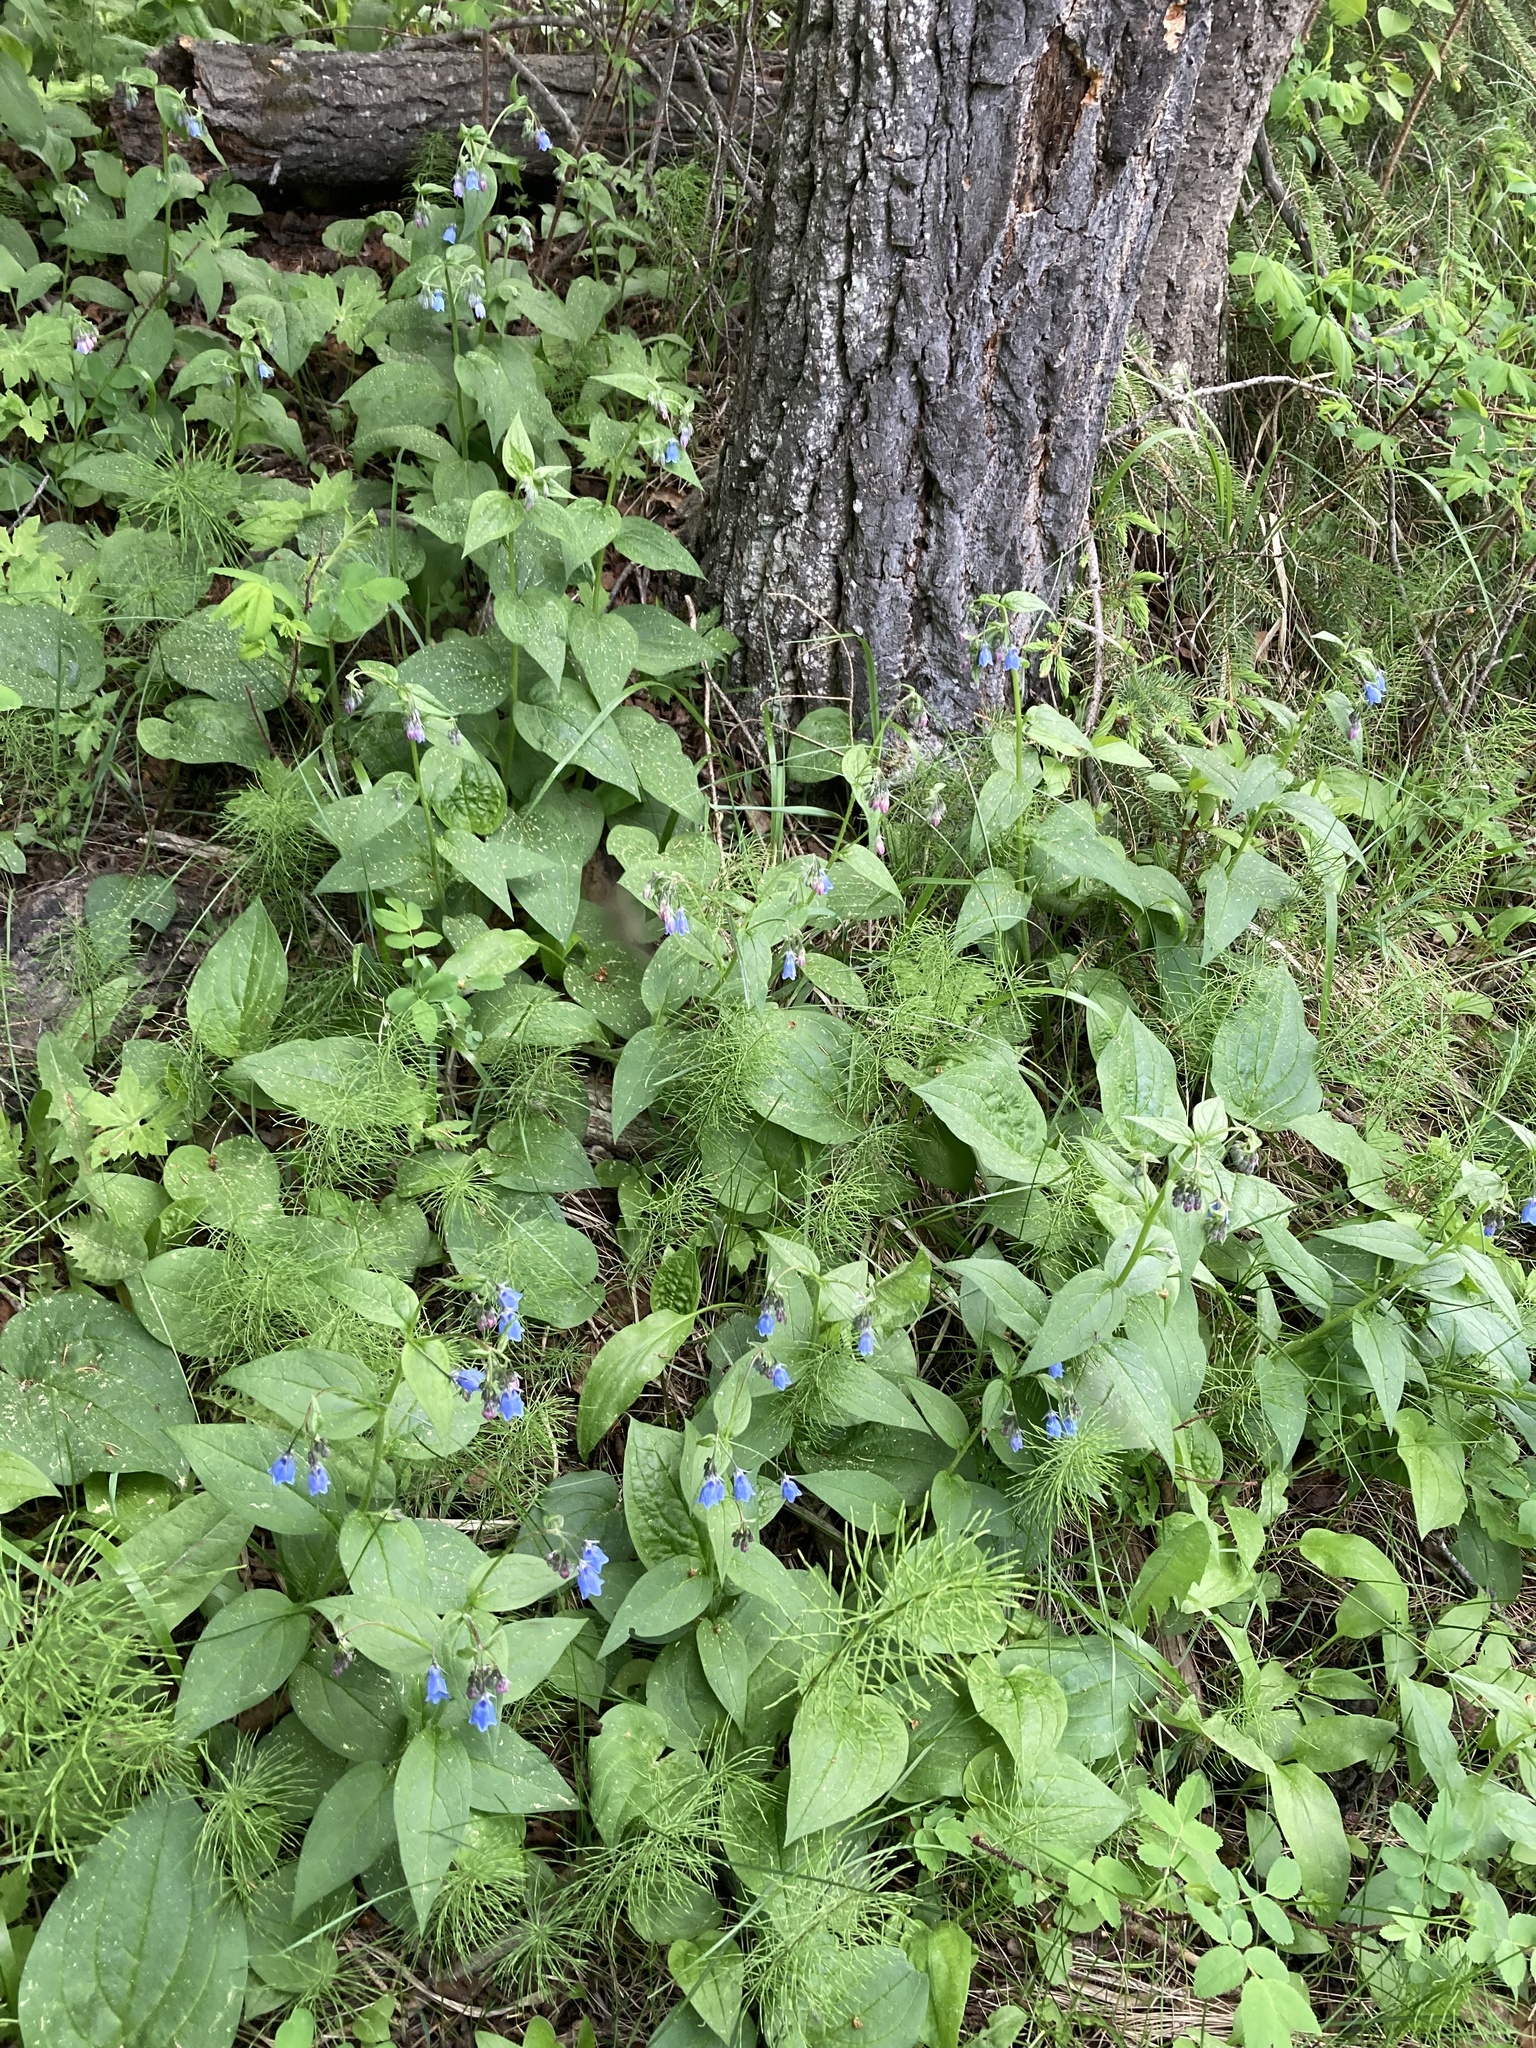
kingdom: Plantae
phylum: Tracheophyta
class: Magnoliopsida
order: Boraginales
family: Boraginaceae
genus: Mertensia
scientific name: Mertensia paniculata
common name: Panicled bluebells
